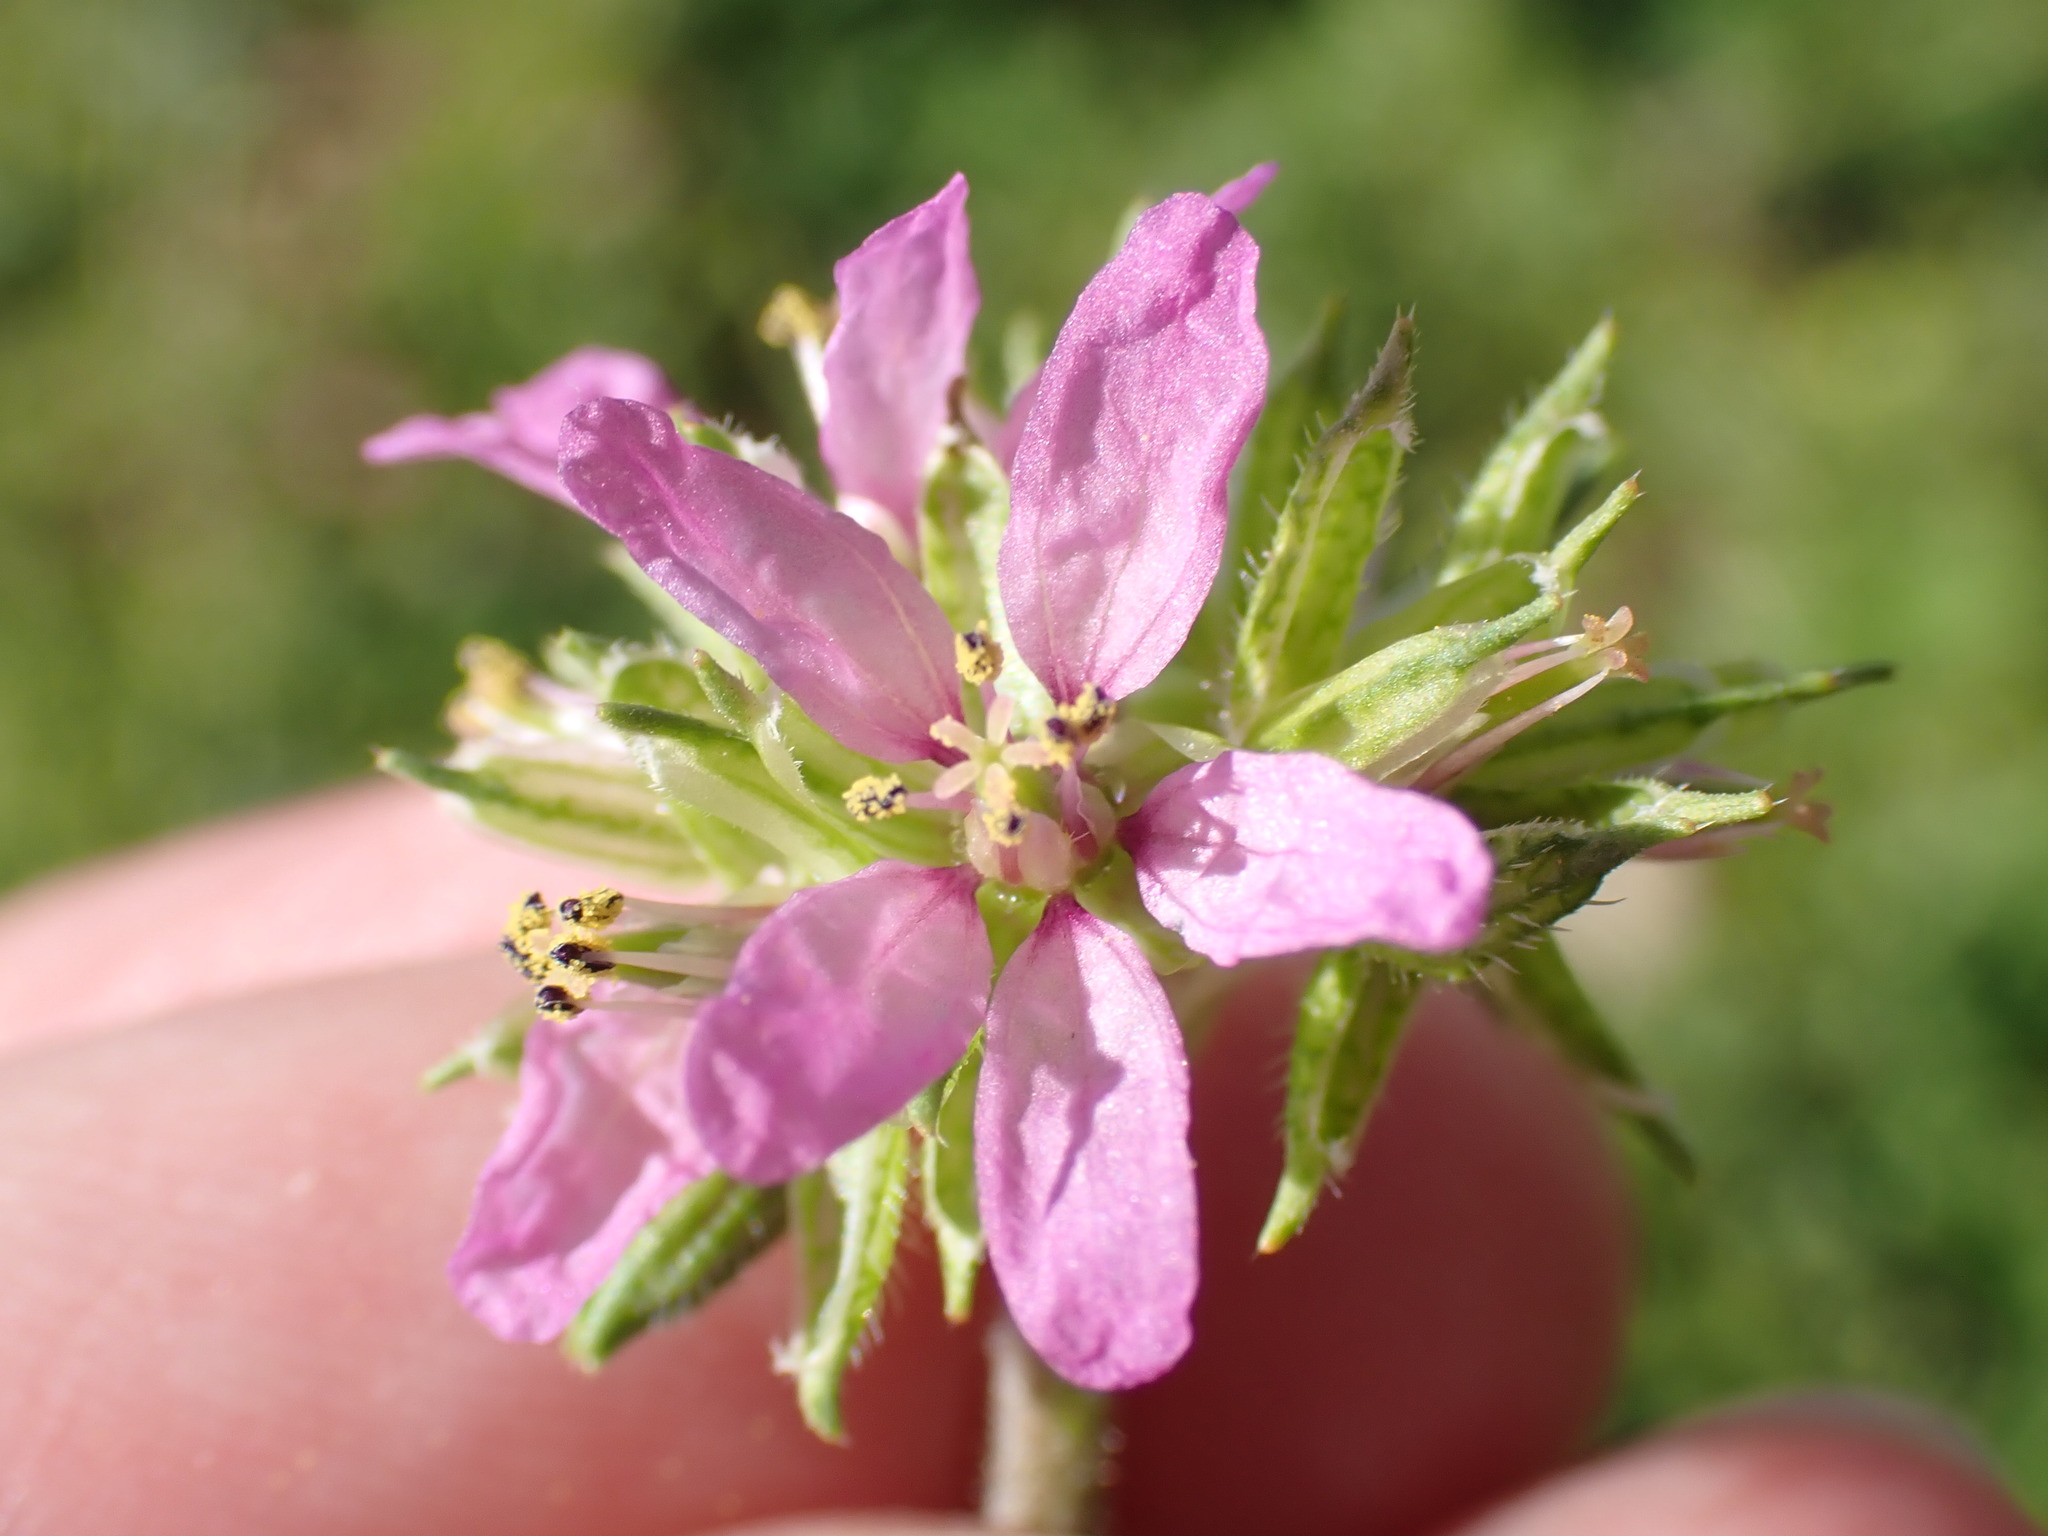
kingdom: Plantae
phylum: Tracheophyta
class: Magnoliopsida
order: Geraniales
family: Geraniaceae
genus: Erodium
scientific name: Erodium moschatum
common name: Musk stork's-bill
